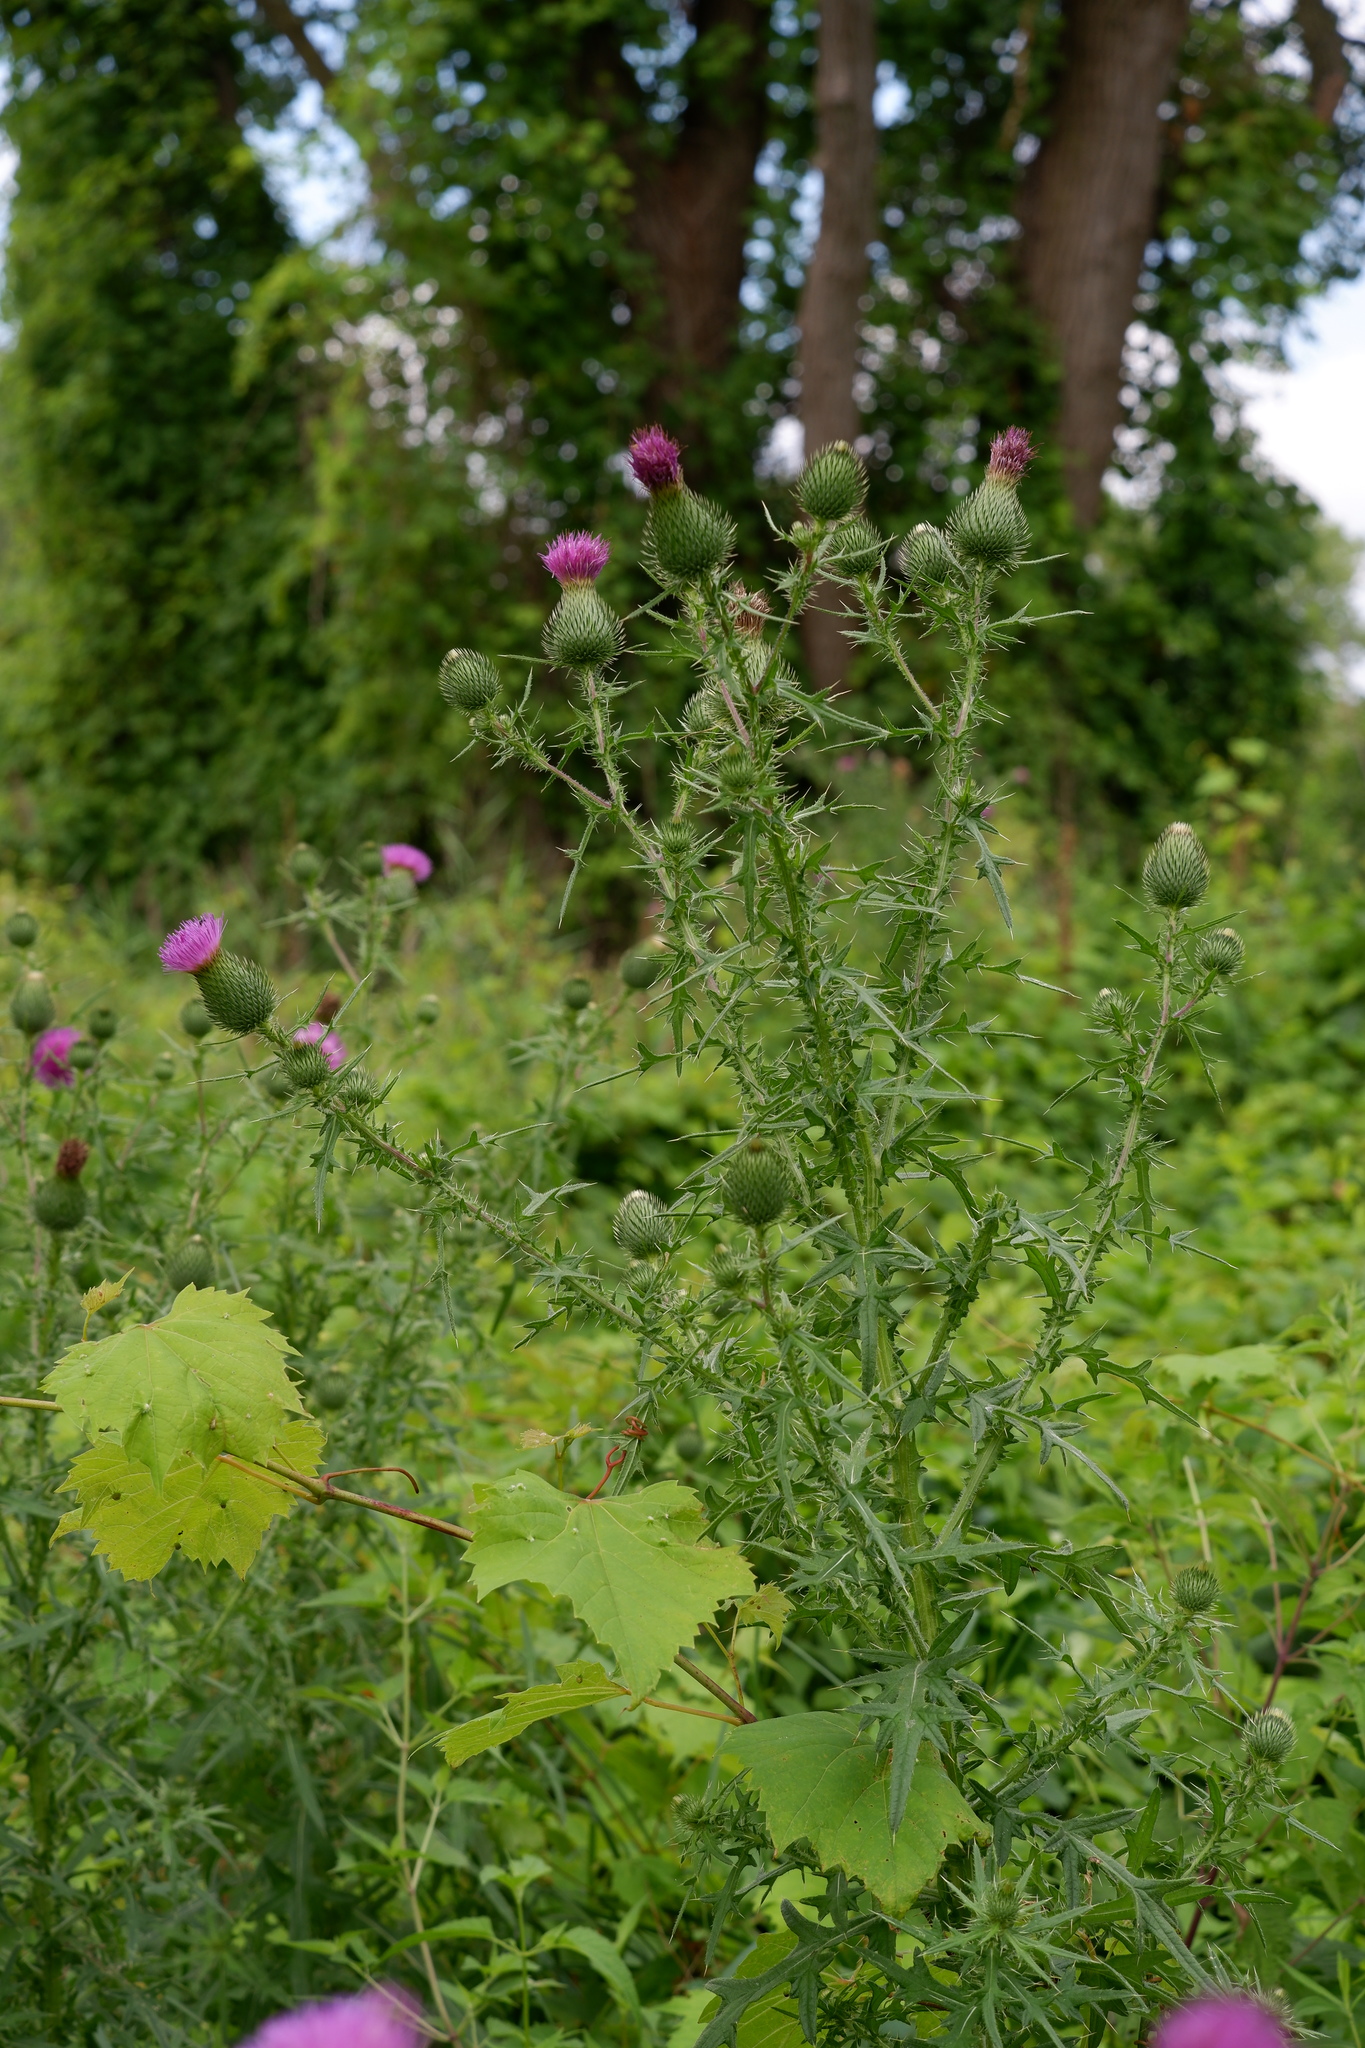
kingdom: Plantae
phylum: Tracheophyta
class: Magnoliopsida
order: Asterales
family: Asteraceae
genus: Cirsium
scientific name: Cirsium vulgare
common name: Bull thistle
